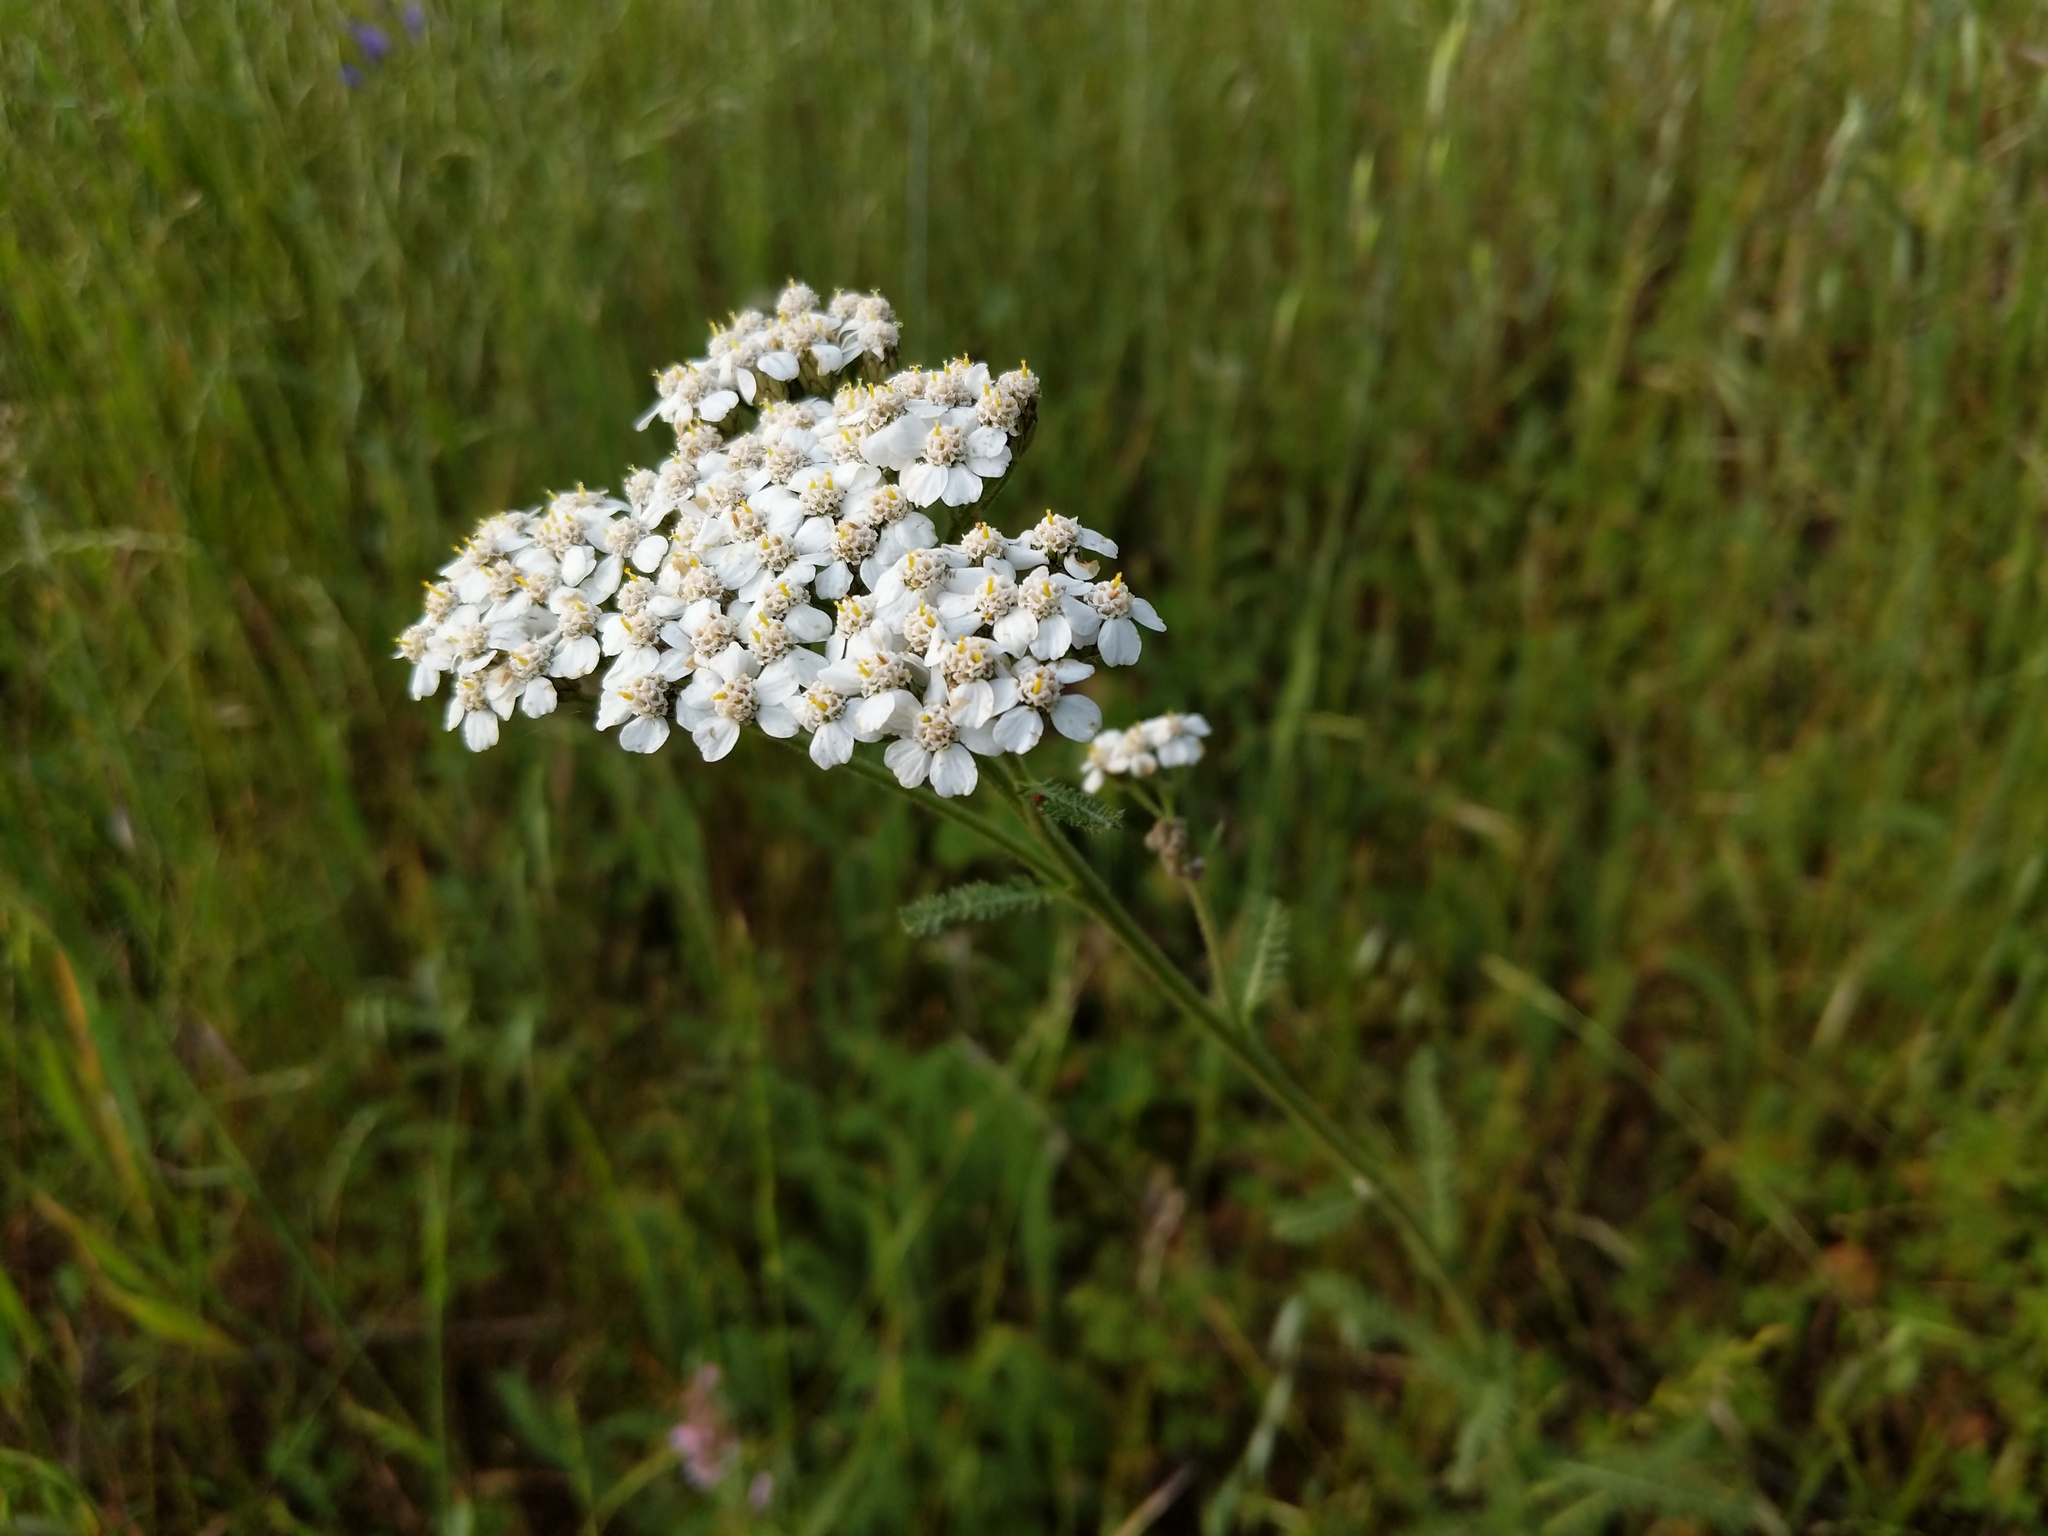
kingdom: Plantae
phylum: Tracheophyta
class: Magnoliopsida
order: Asterales
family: Asteraceae
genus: Achillea
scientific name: Achillea millefolium
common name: Yarrow
